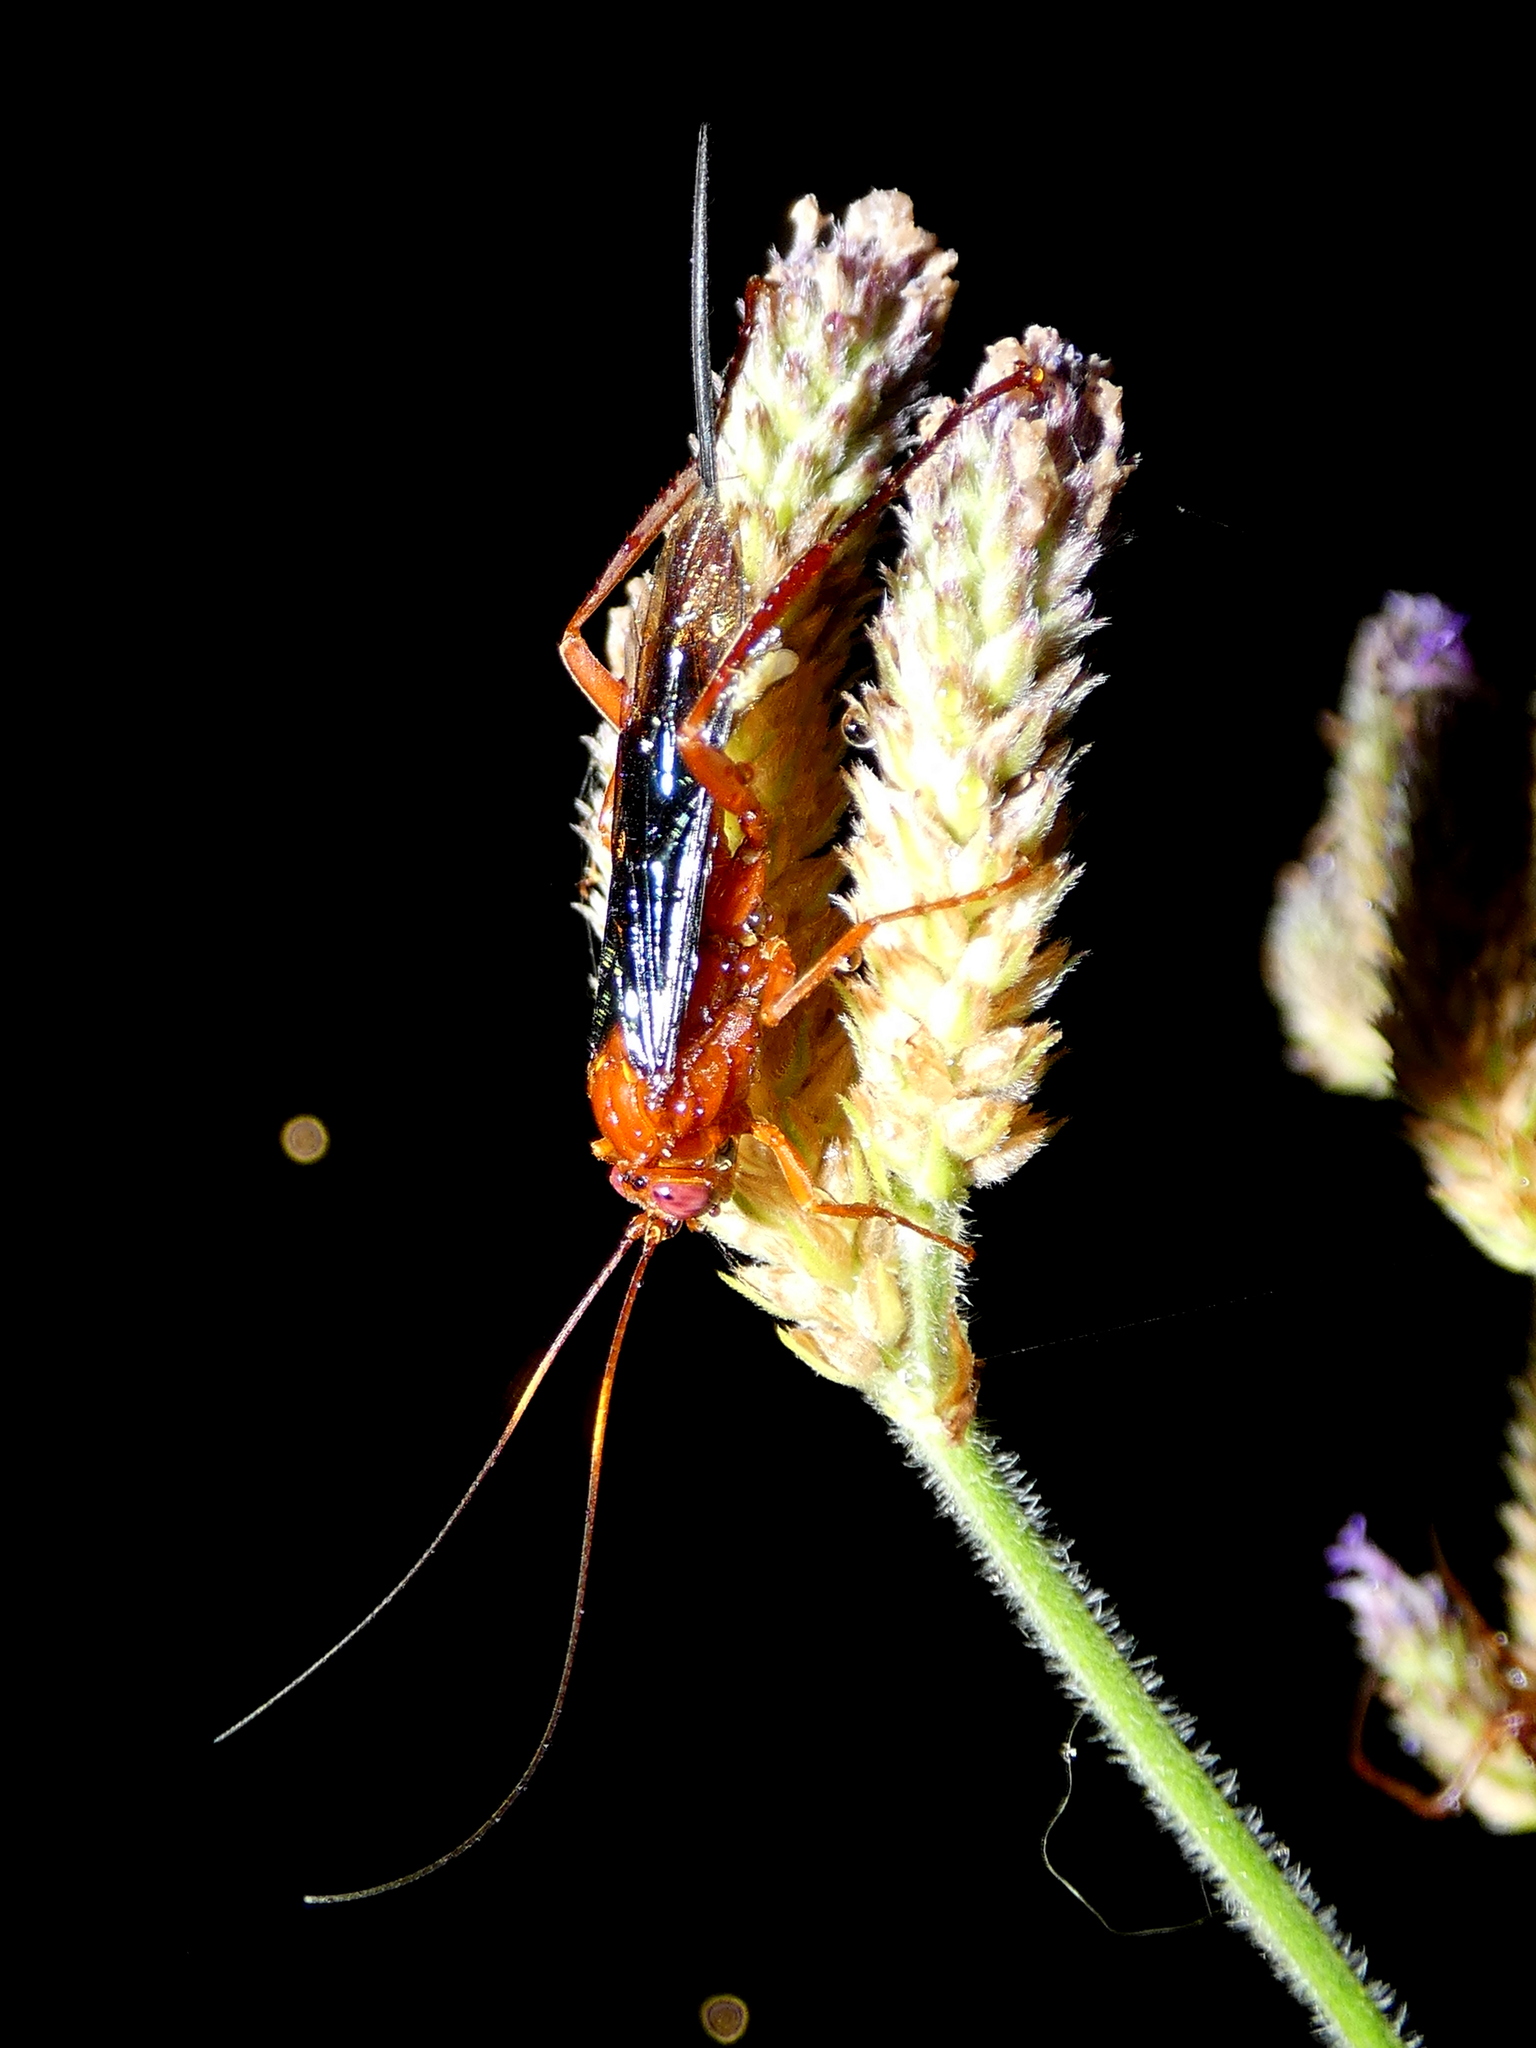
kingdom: Animalia
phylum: Arthropoda
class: Insecta
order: Hymenoptera
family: Ichneumonidae
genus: Lissopimpla
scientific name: Lissopimpla excelsa
